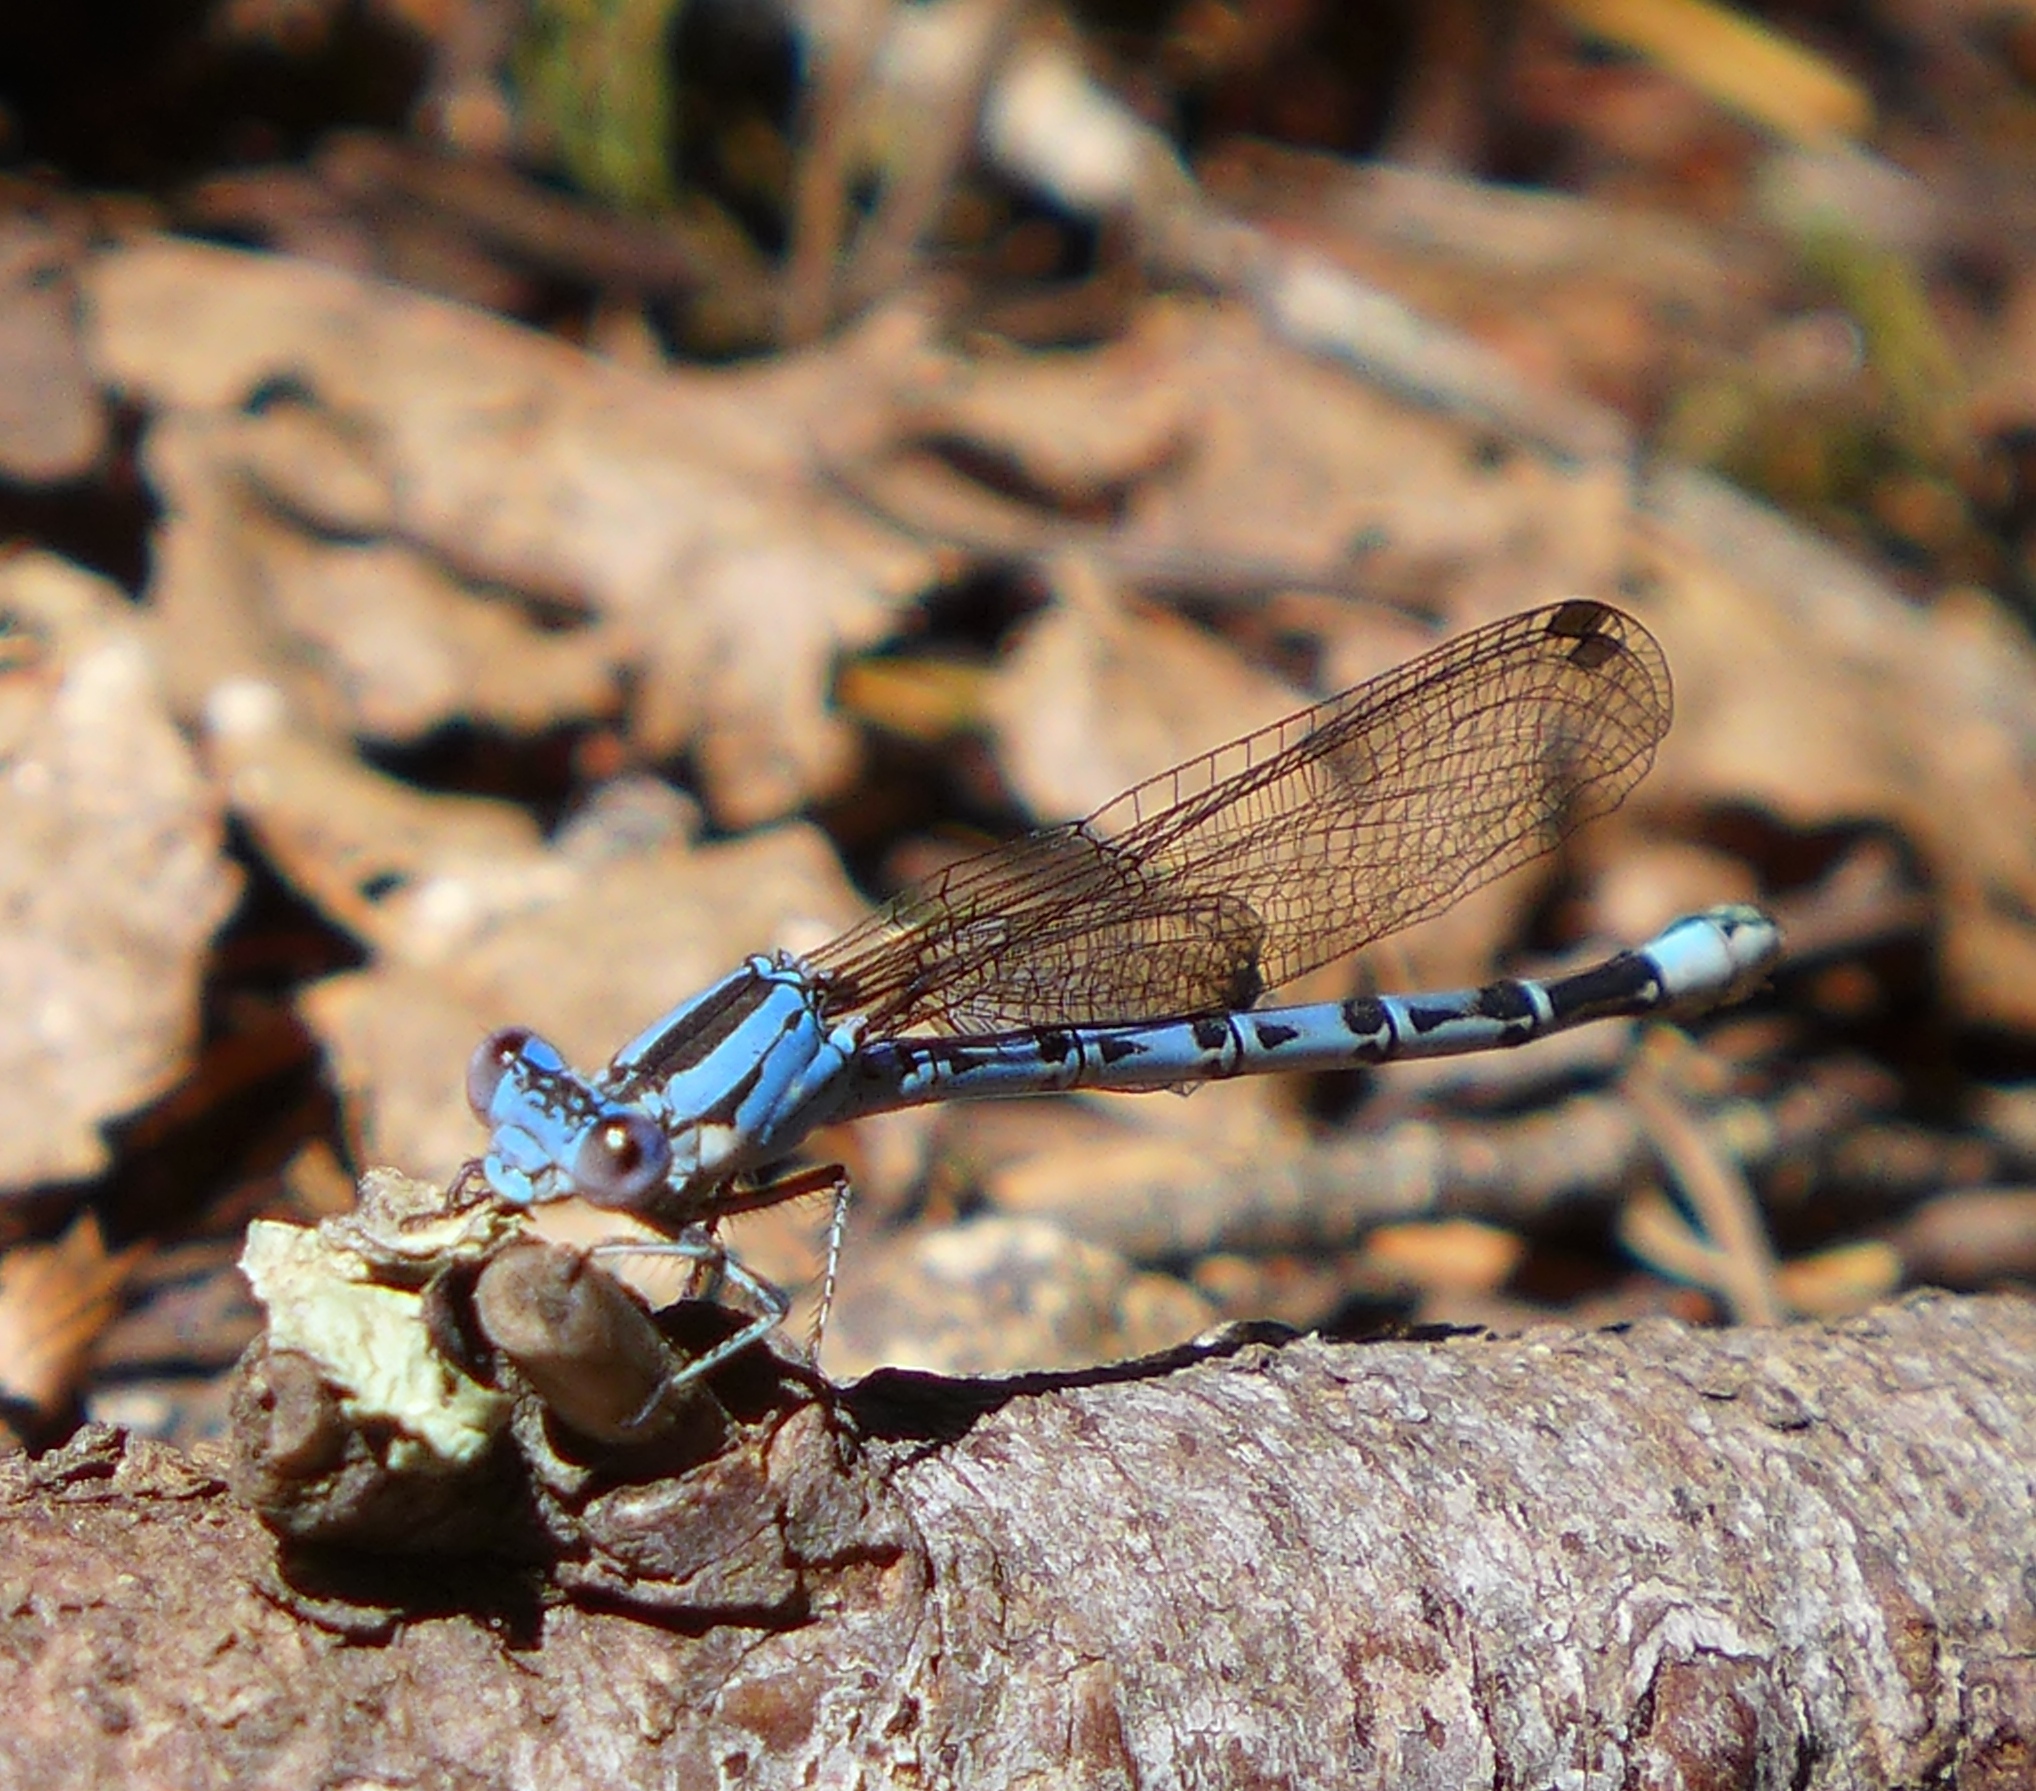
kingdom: Animalia
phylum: Arthropoda
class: Insecta
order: Odonata
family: Coenagrionidae
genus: Argia
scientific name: Argia vivida
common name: Vivid dancer
